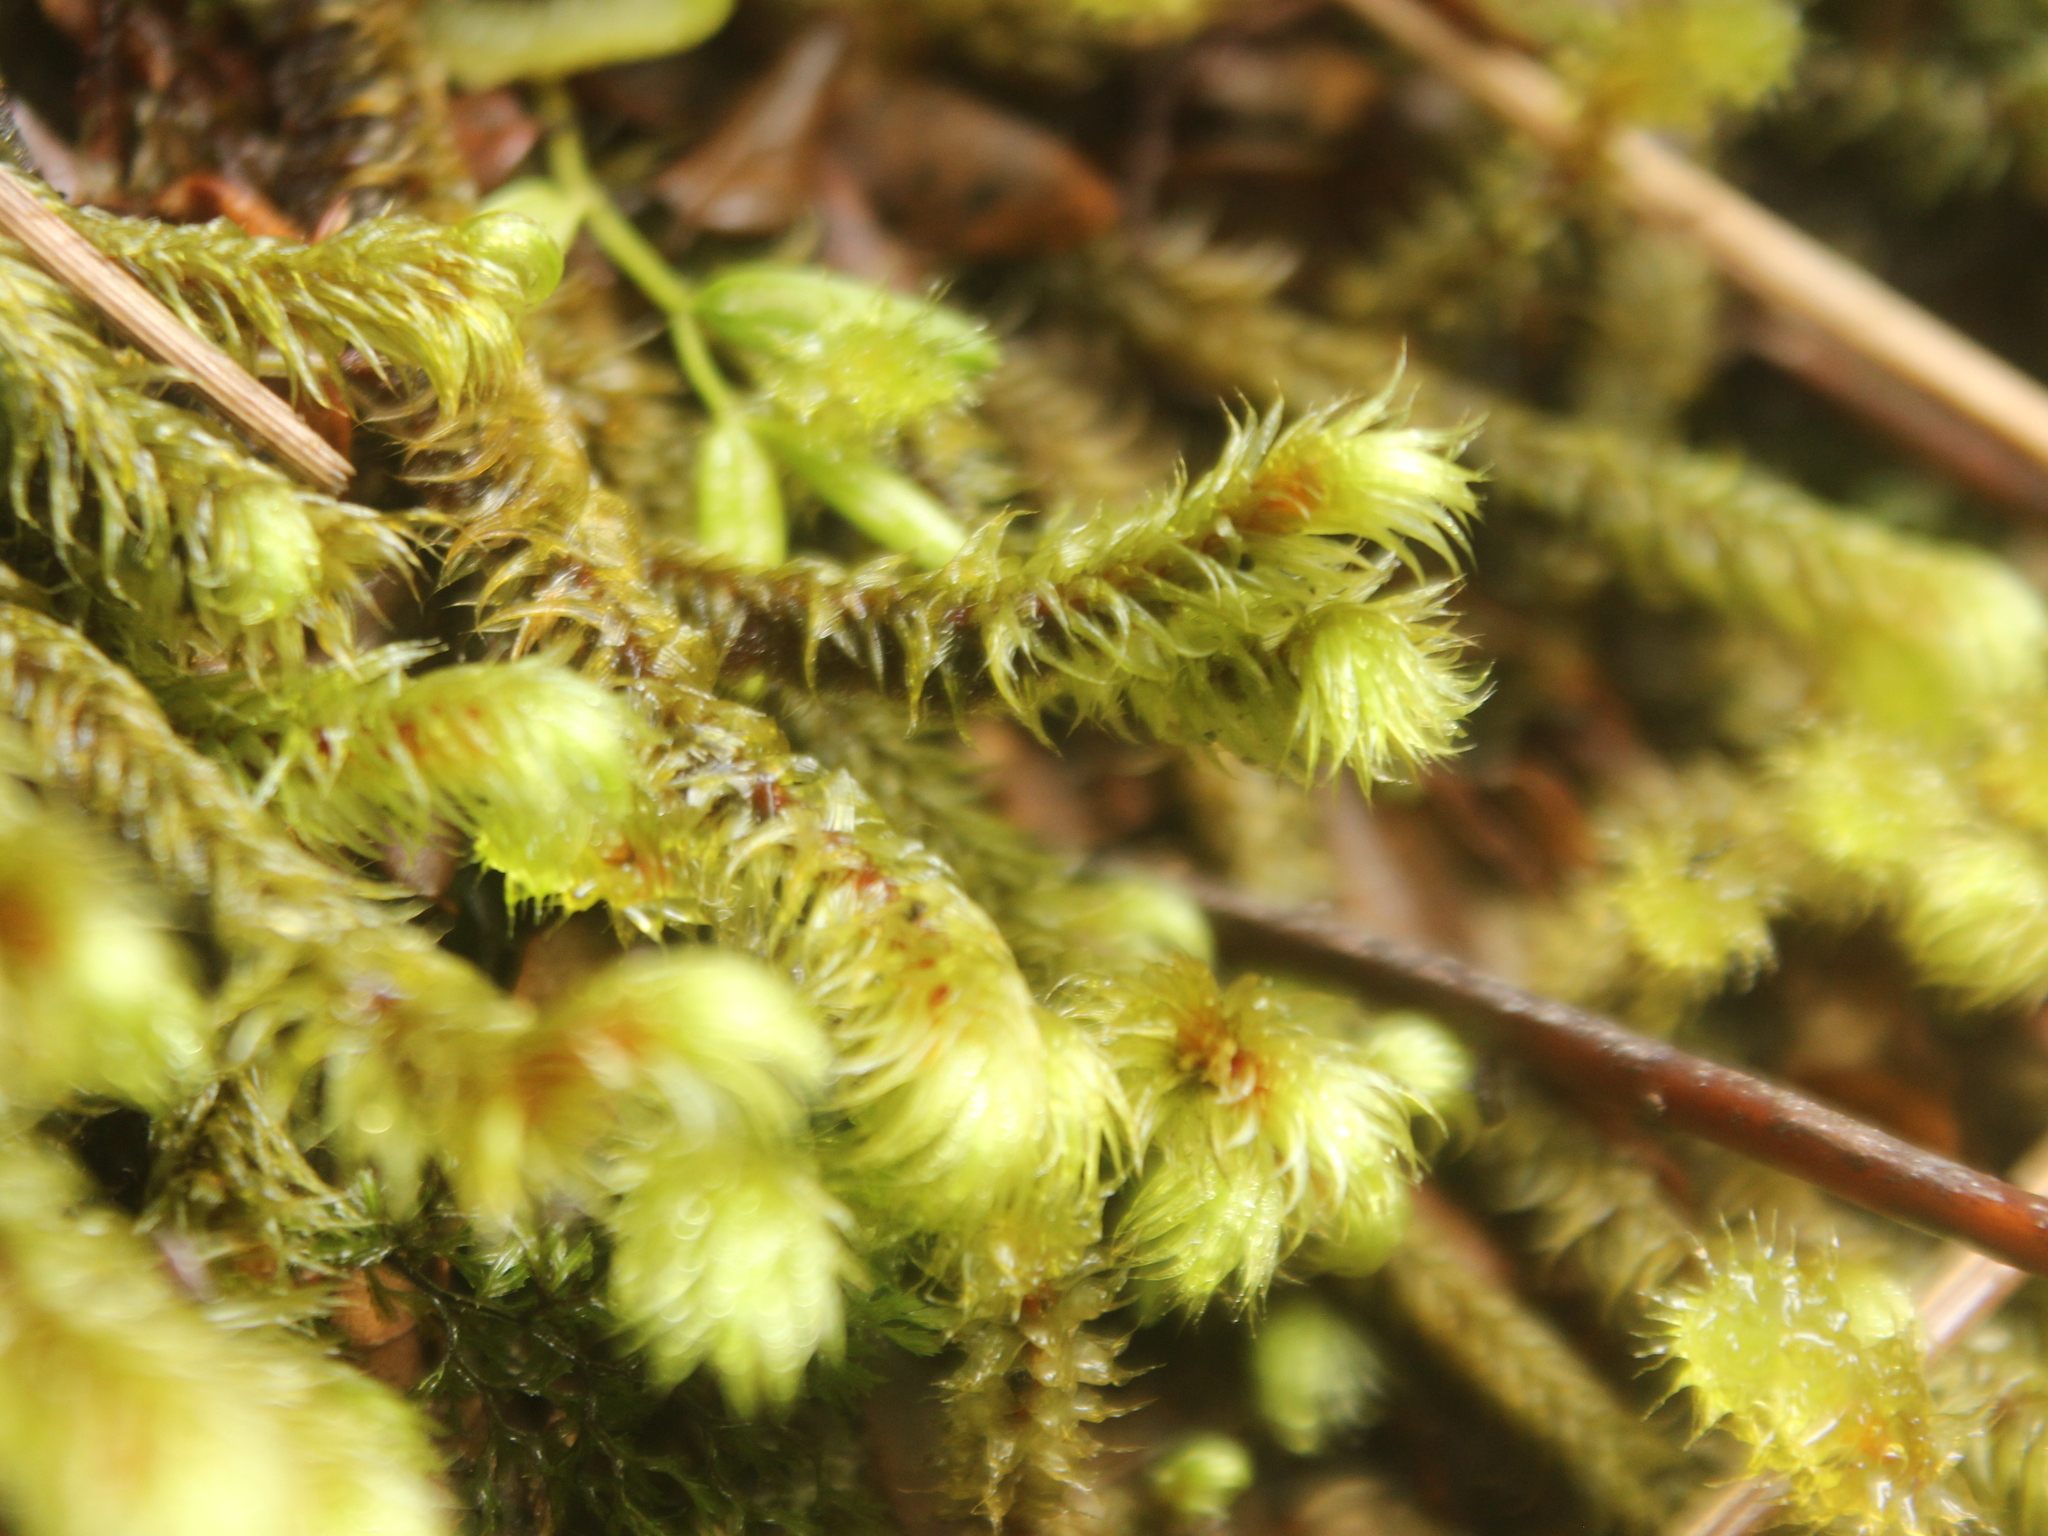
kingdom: Plantae
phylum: Bryophyta
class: Bryopsida
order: Bartramiales
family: Bartramiaceae
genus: Breutelia
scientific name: Breutelia elongata
